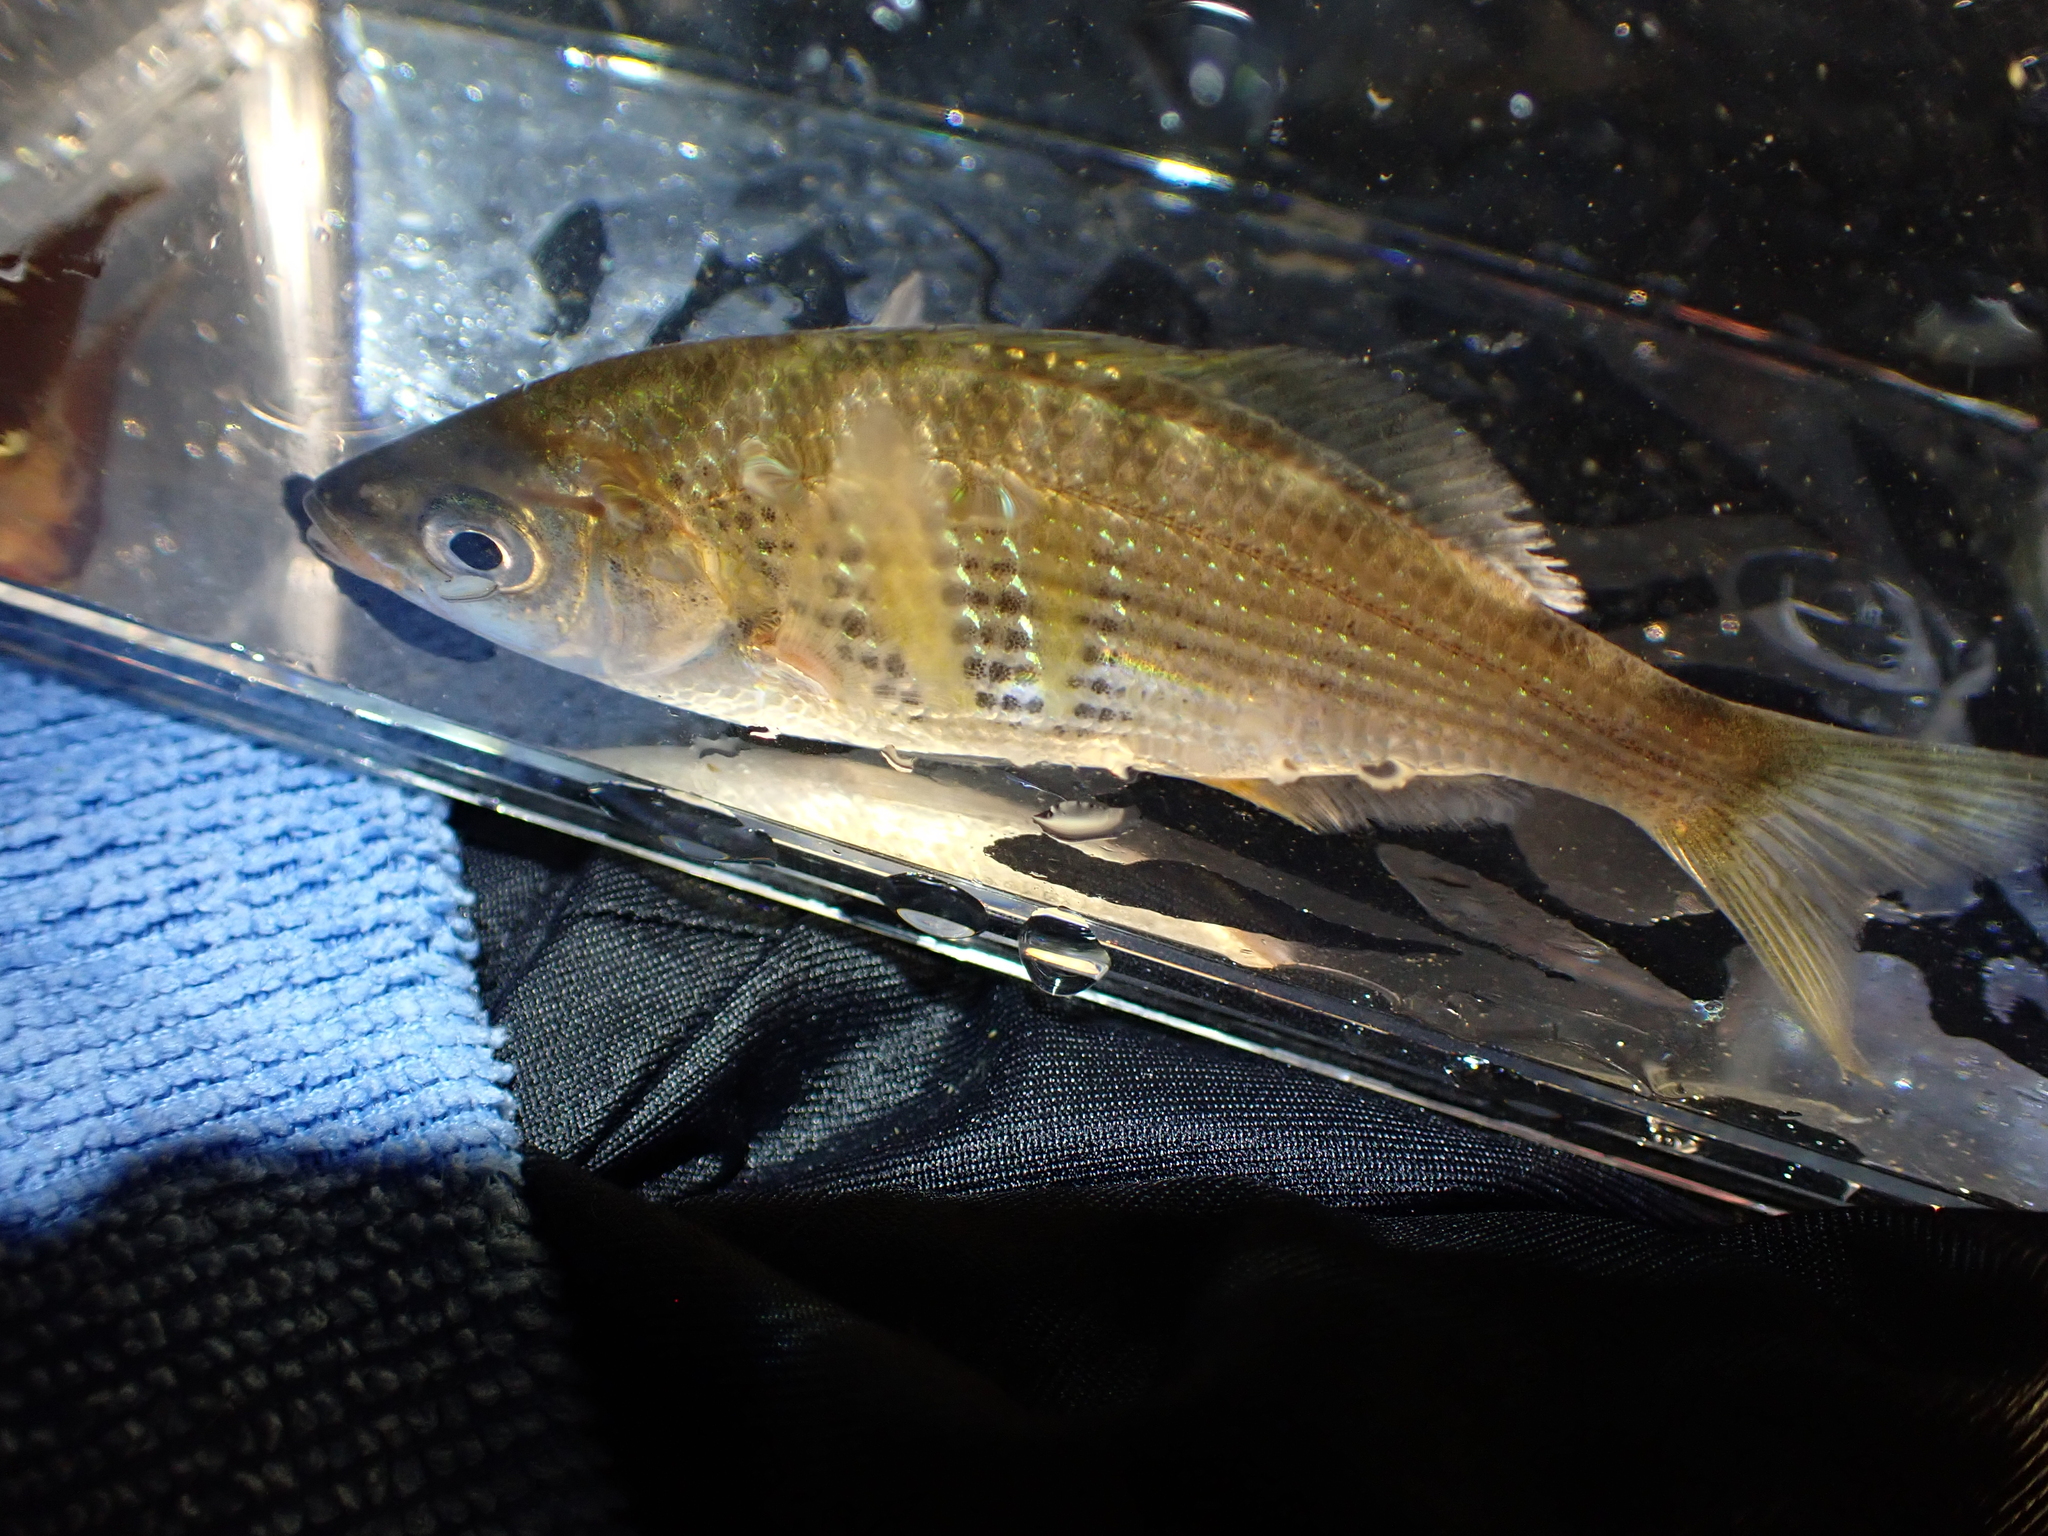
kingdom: Animalia
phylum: Chordata
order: Perciformes
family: Embiotocidae
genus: Cymatogaster
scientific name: Cymatogaster aggregata
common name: Shiner perch
